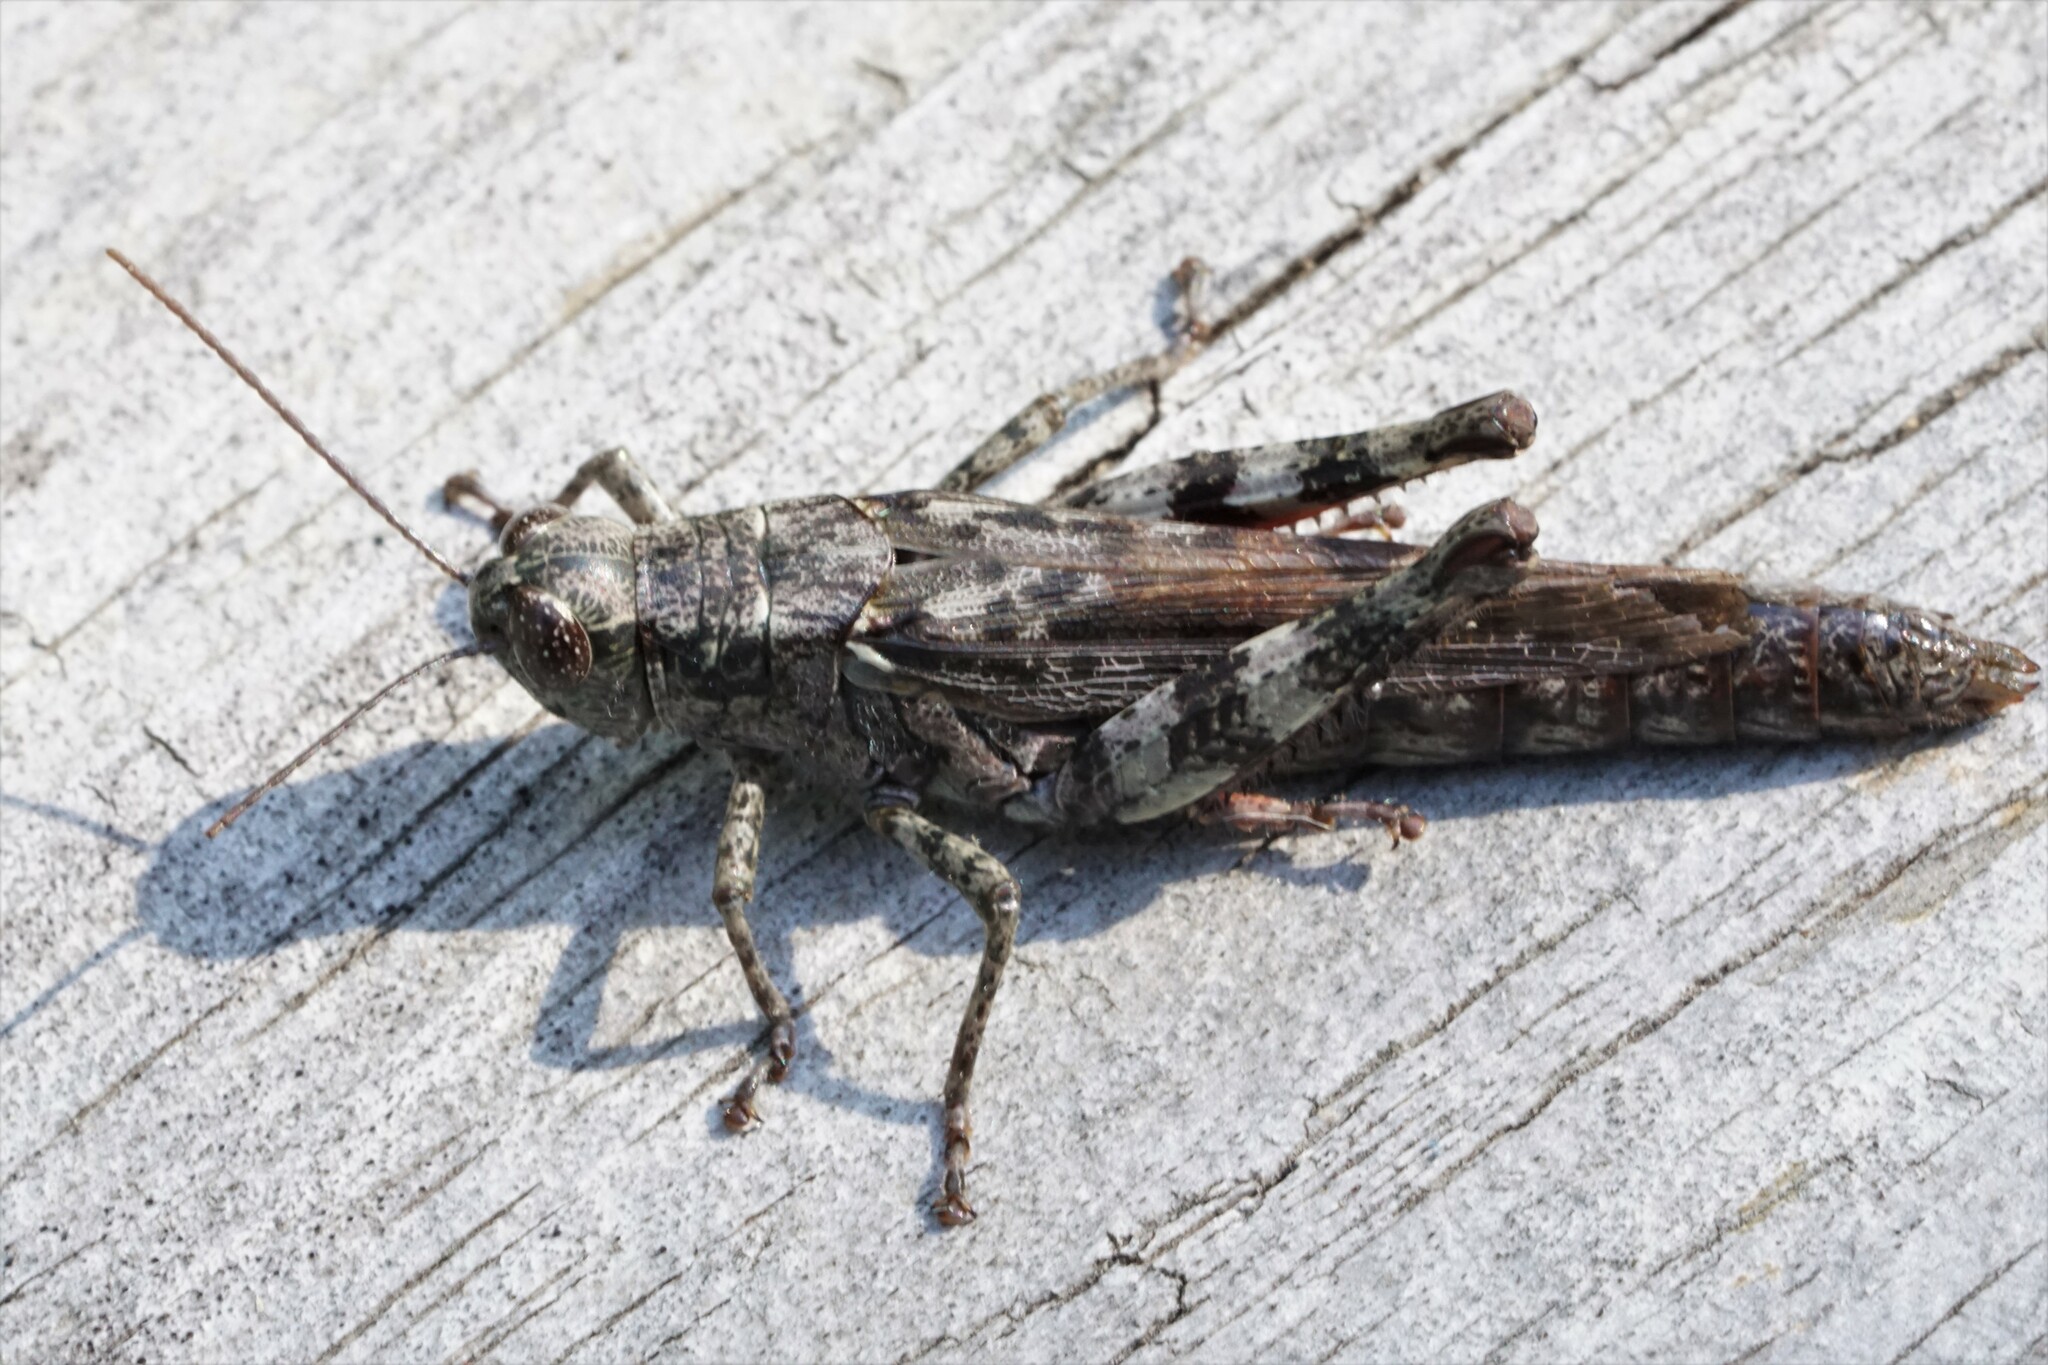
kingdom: Animalia
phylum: Arthropoda
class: Insecta
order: Orthoptera
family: Acrididae
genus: Melanoplus
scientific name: Melanoplus punctulatus
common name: Pine-tree spur-throat grasshopper
